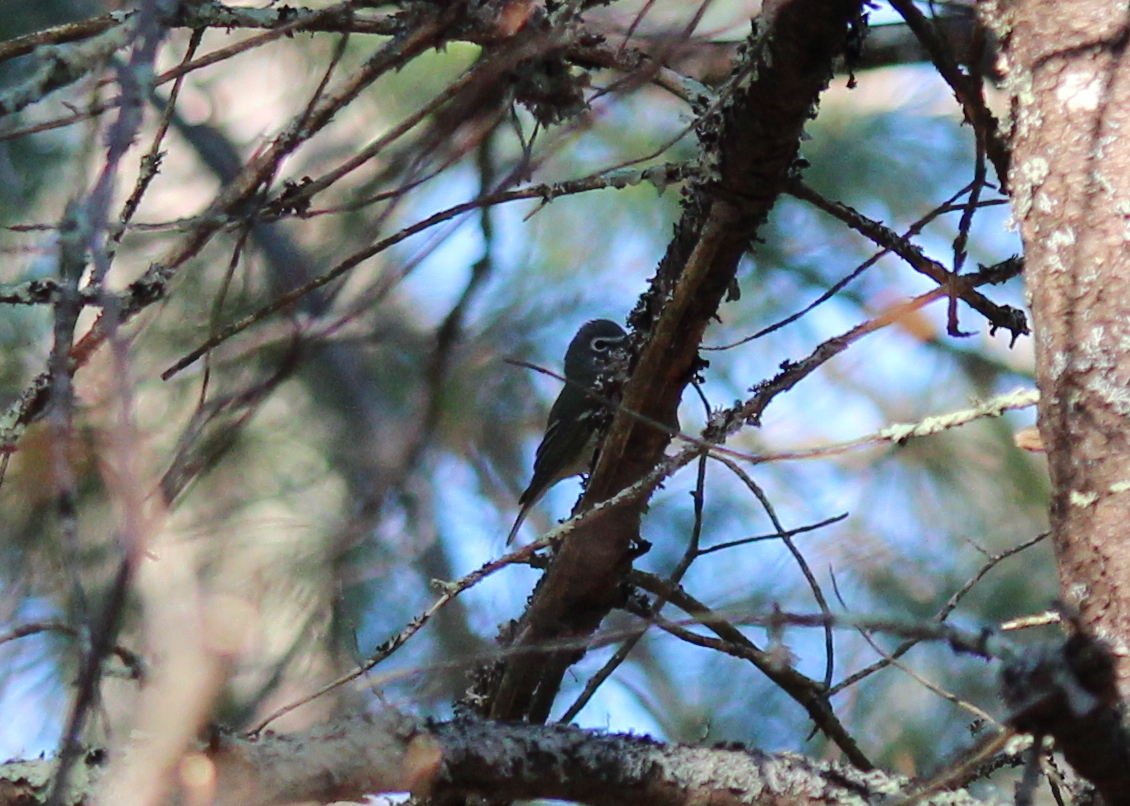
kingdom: Animalia
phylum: Chordata
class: Aves
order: Passeriformes
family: Vireonidae
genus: Vireo
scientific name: Vireo solitarius
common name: Blue-headed vireo
